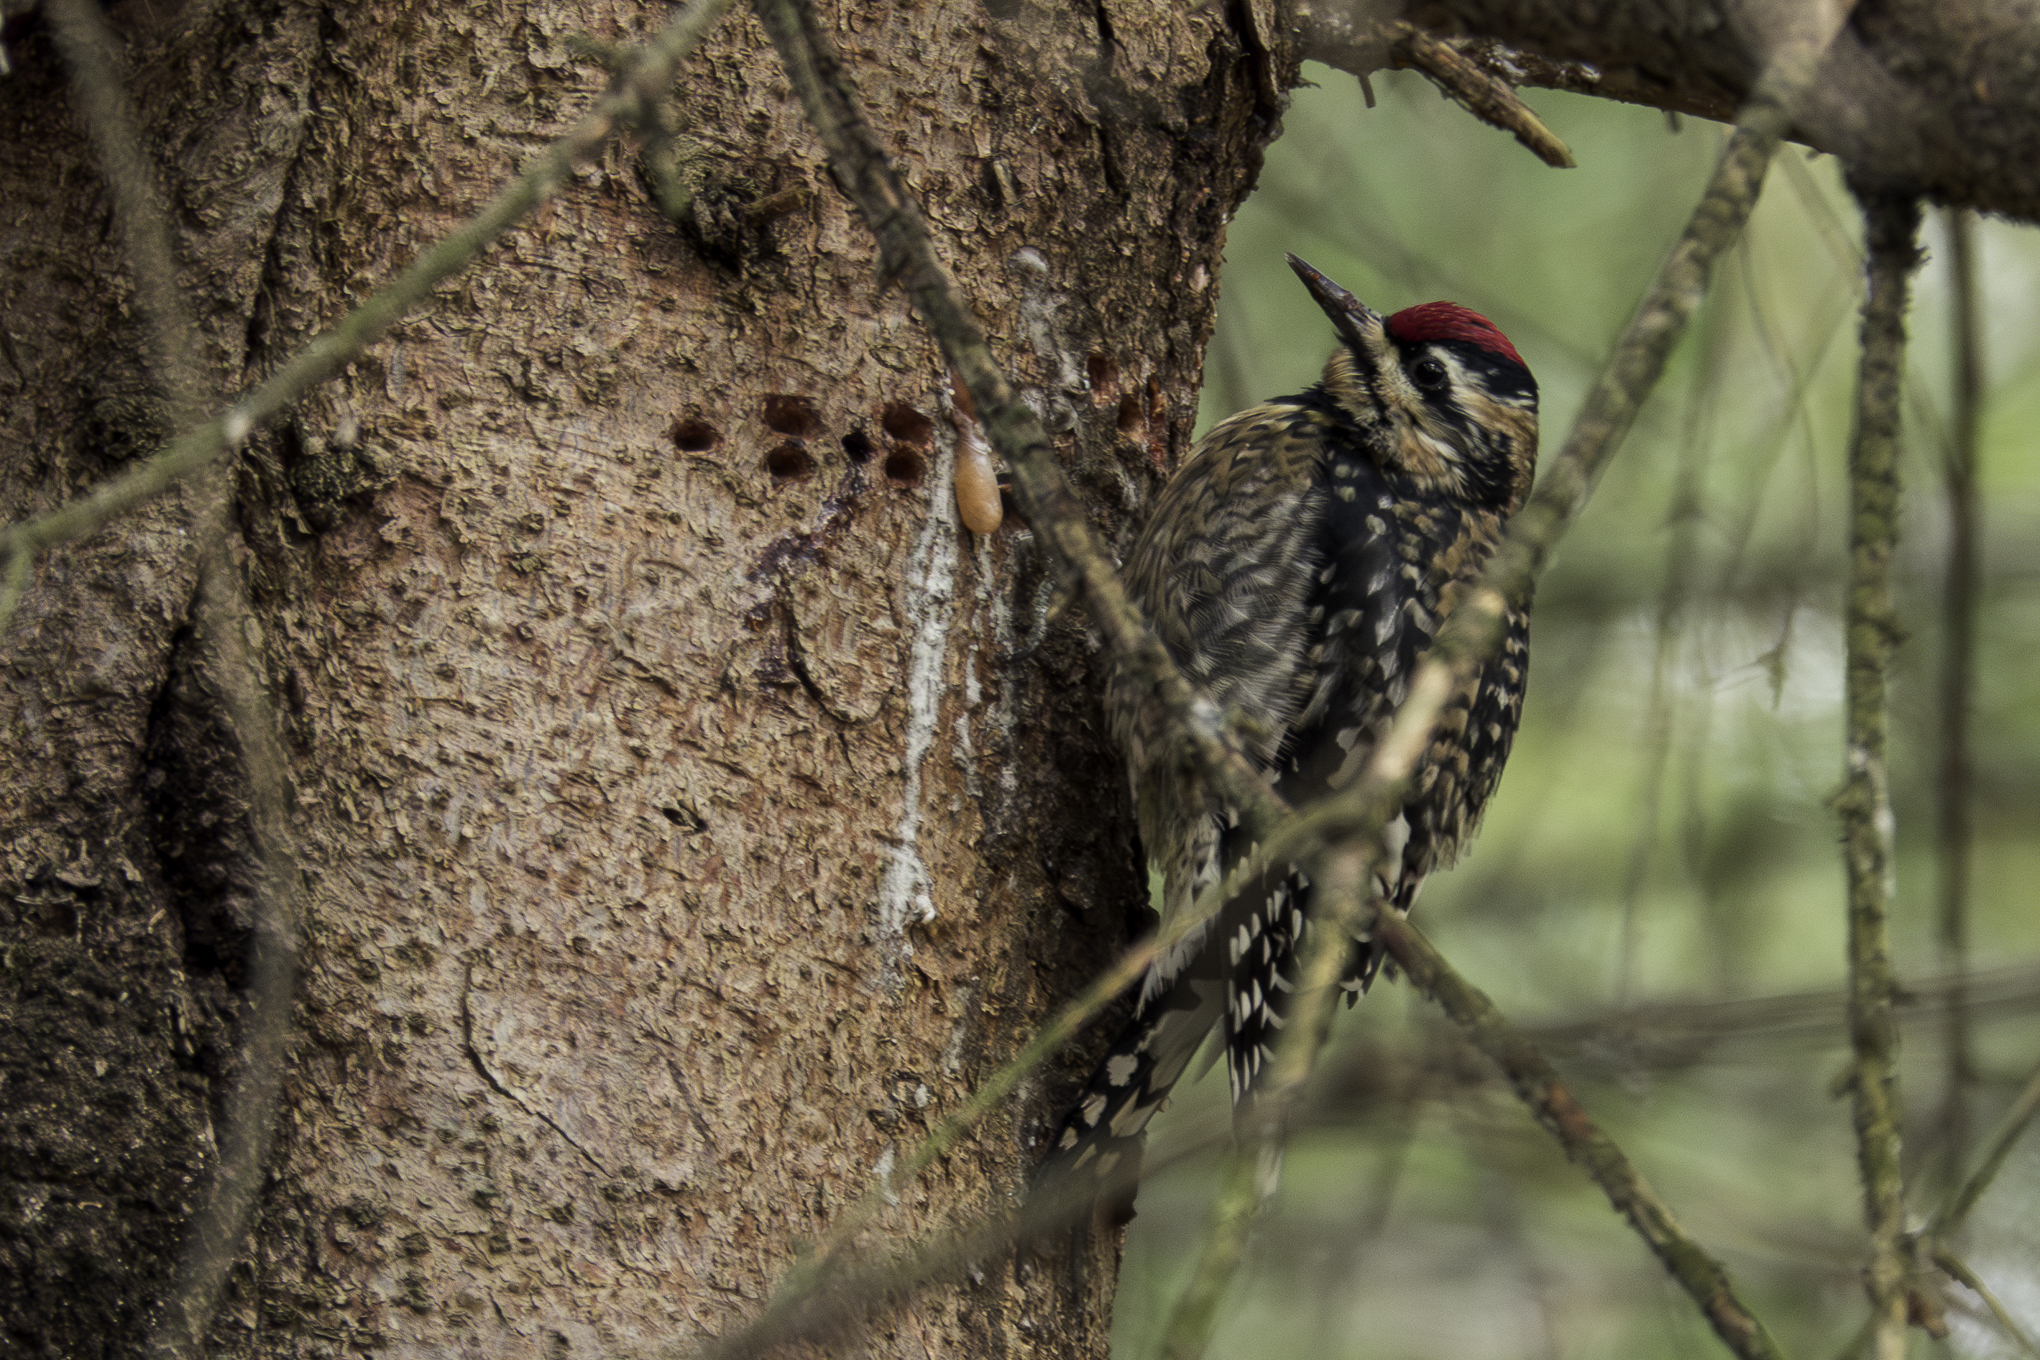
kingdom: Animalia
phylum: Chordata
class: Aves
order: Piciformes
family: Picidae
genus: Sphyrapicus
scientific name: Sphyrapicus varius
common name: Yellow-bellied sapsucker
